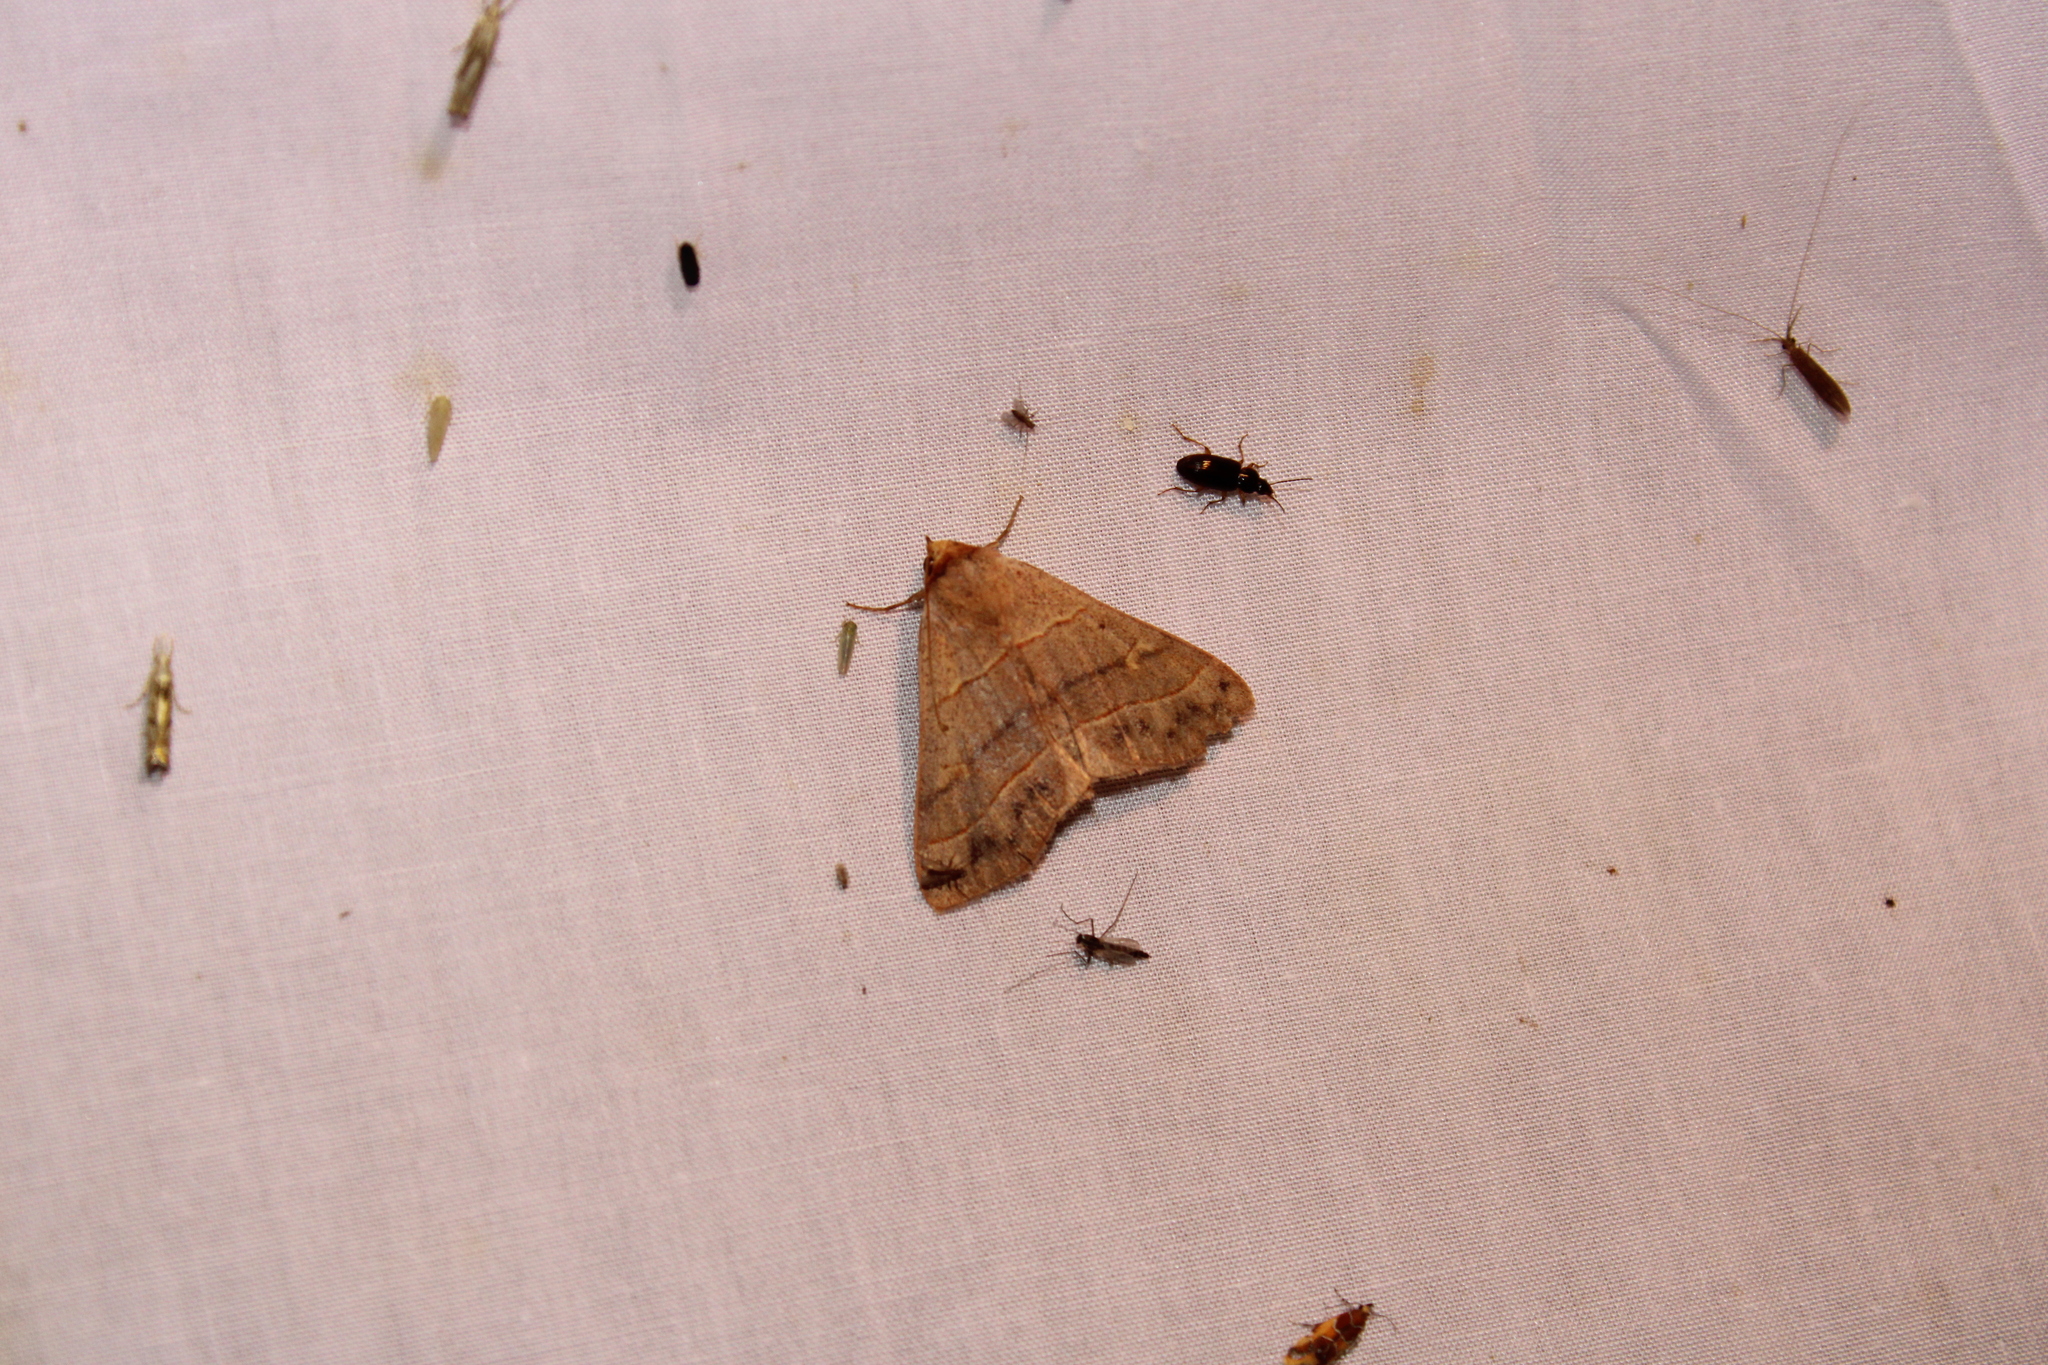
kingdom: Animalia
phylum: Arthropoda
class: Insecta
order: Lepidoptera
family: Erebidae
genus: Panopoda
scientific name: Panopoda rufimargo
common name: Red-lined panopoda moth
